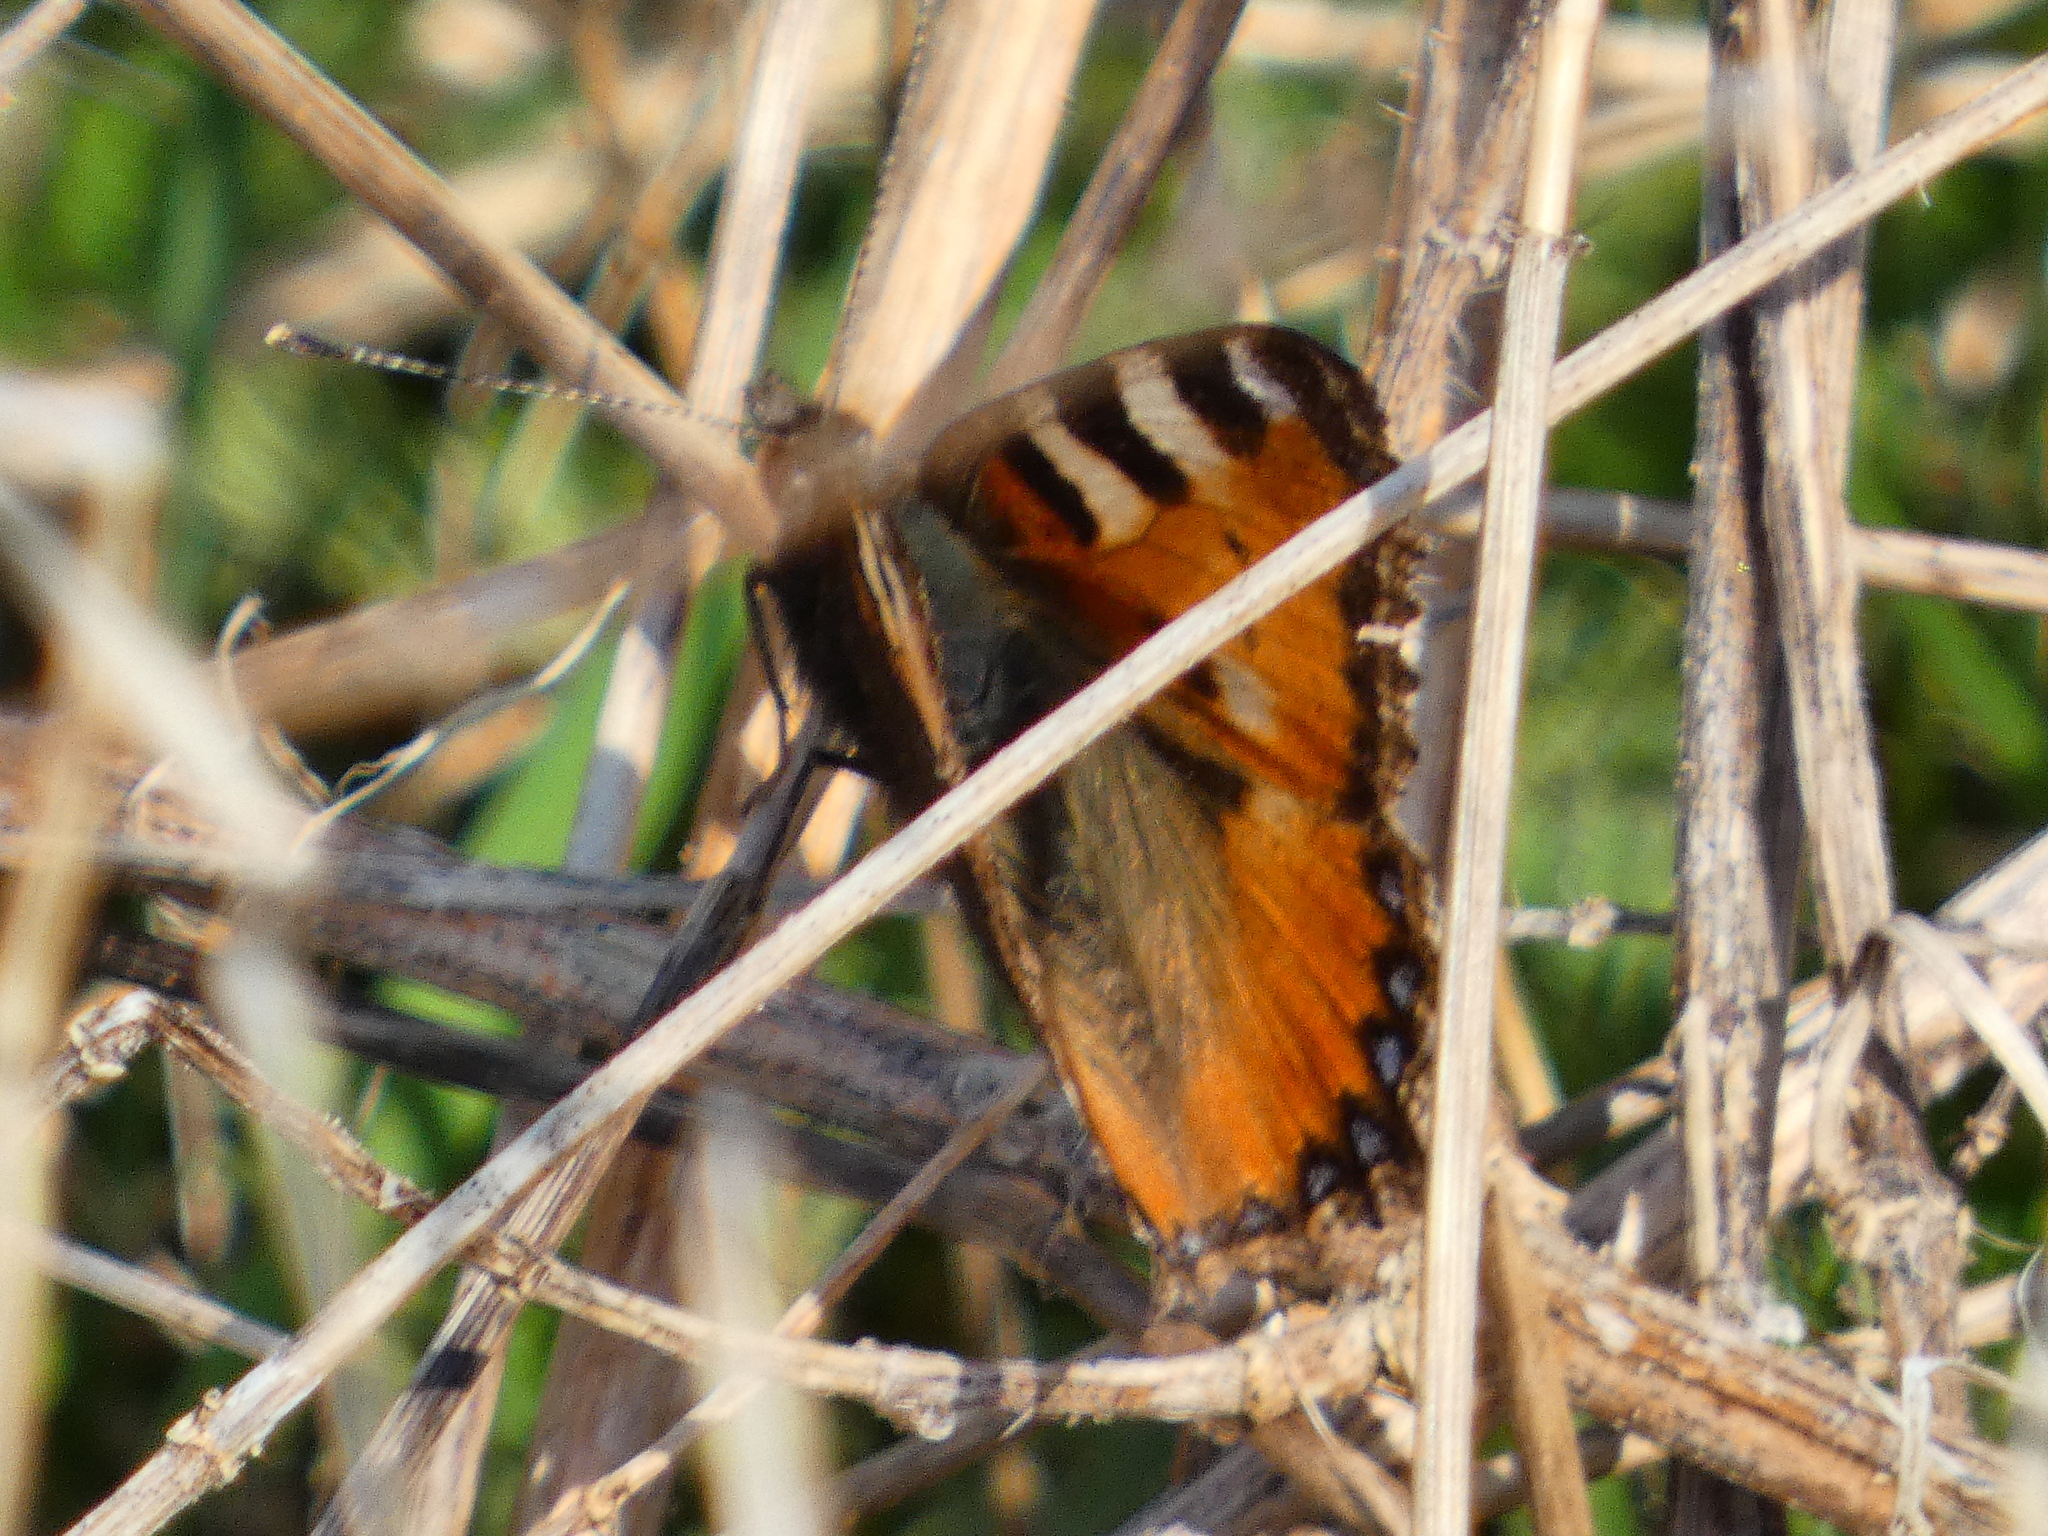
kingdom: Animalia
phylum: Arthropoda
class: Insecta
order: Lepidoptera
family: Nymphalidae
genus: Aglais
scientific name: Aglais urticae
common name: Small tortoiseshell
